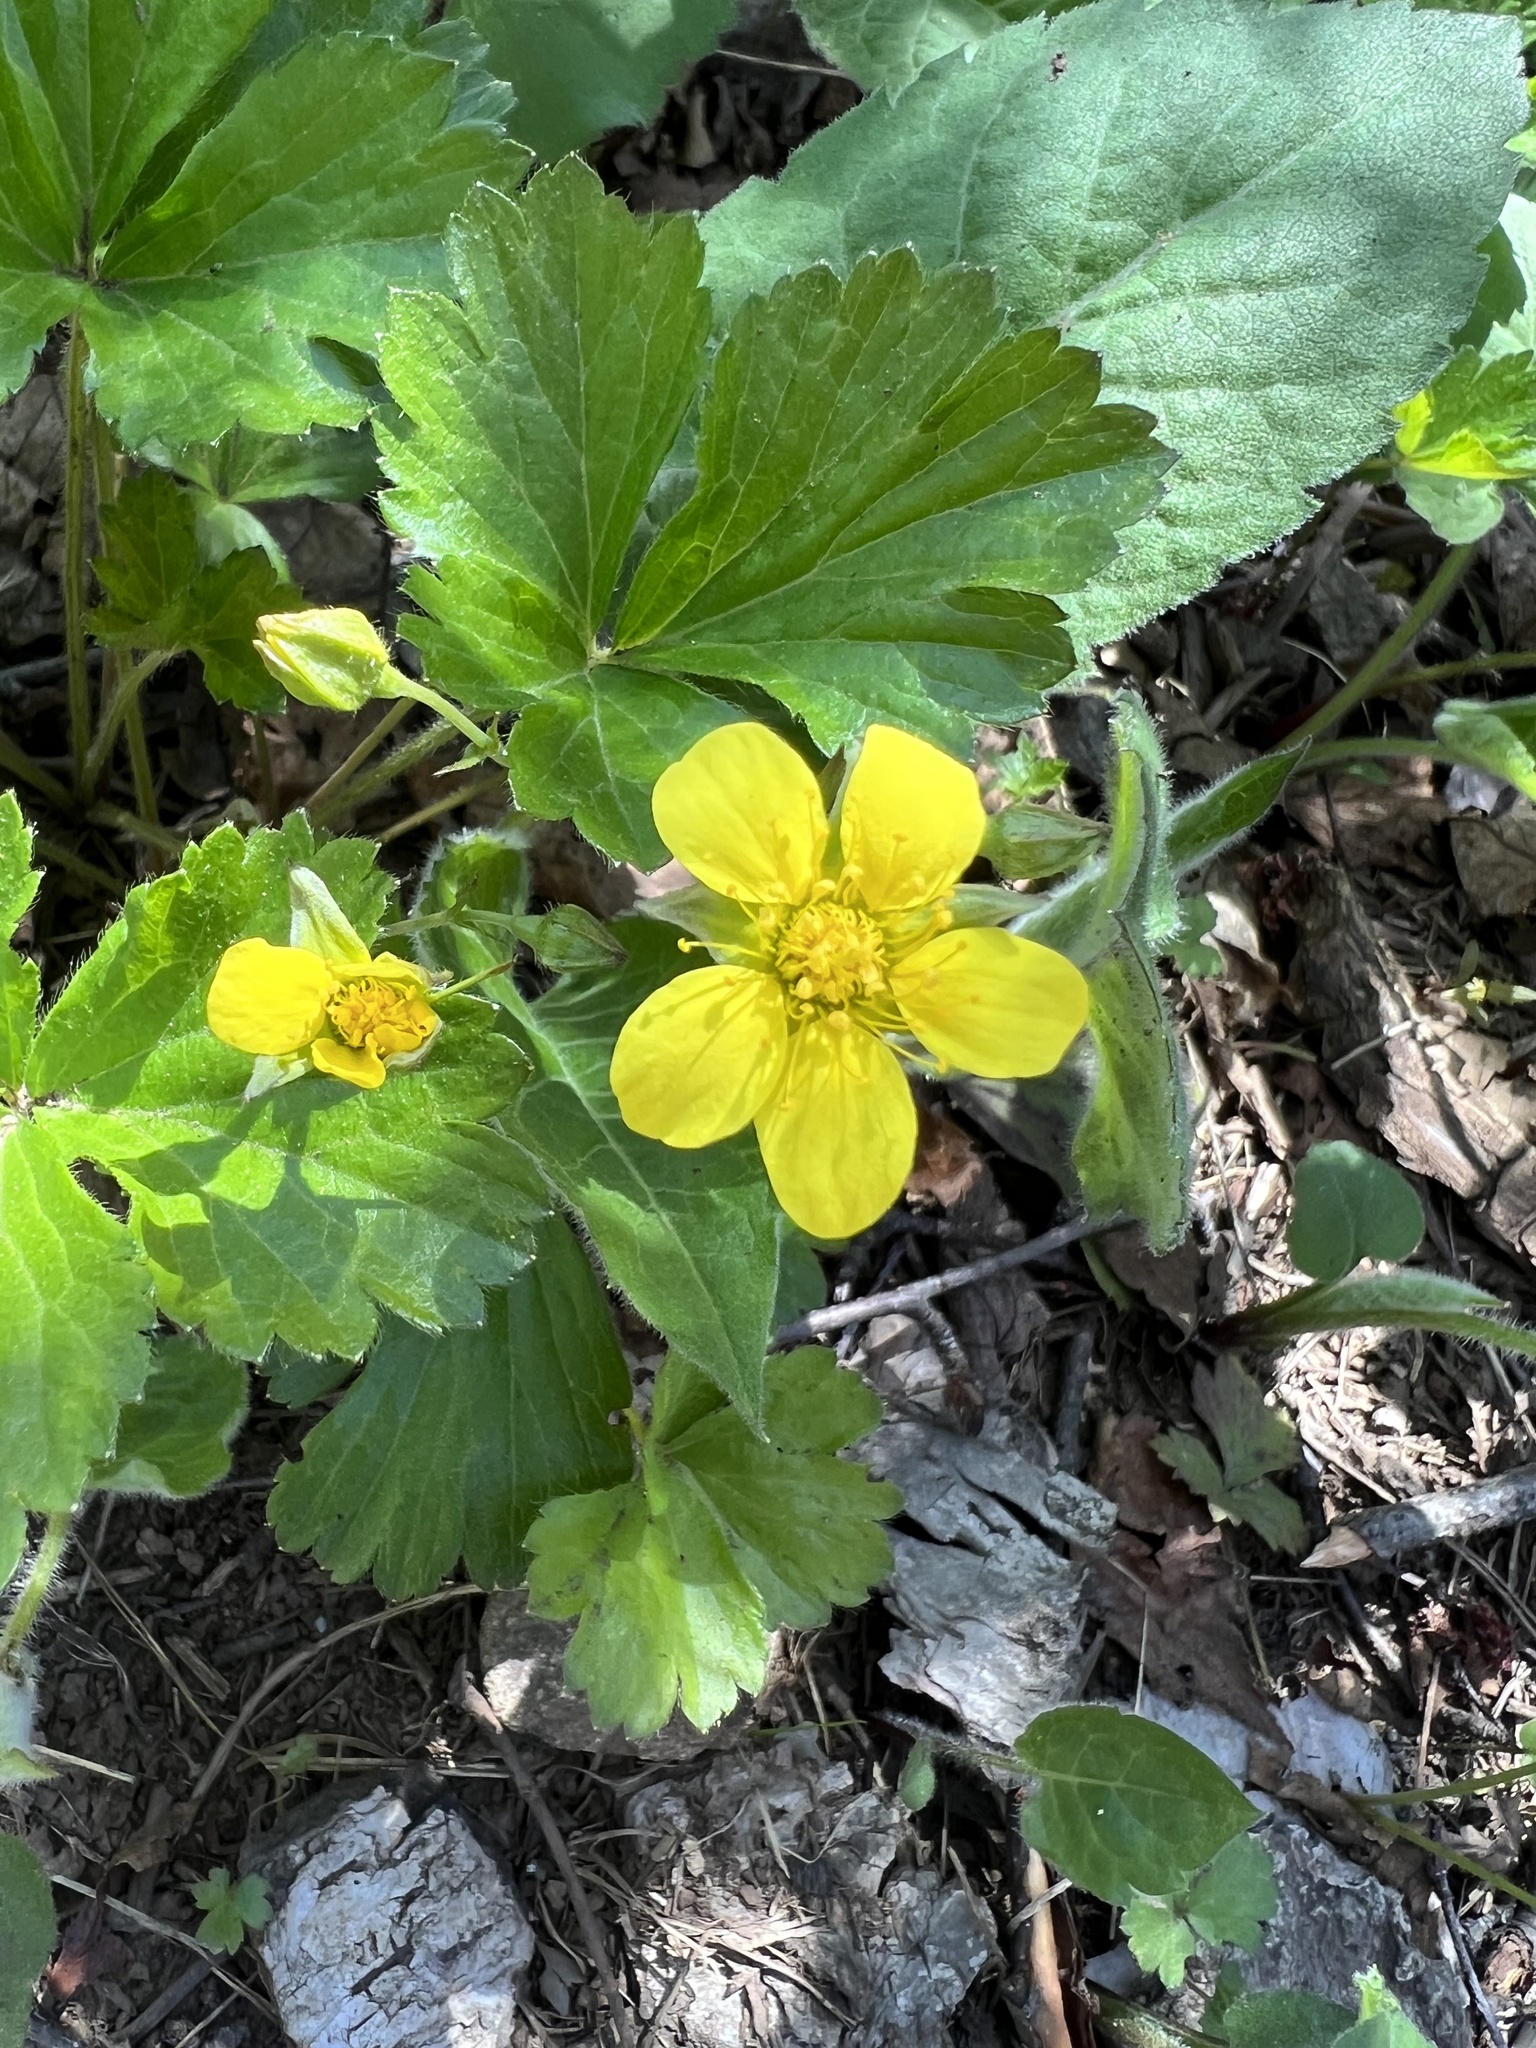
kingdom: Plantae
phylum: Tracheophyta
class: Magnoliopsida
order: Rosales
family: Rosaceae
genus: Geum
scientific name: Geum fragarioides
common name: Appalachian barren strawberry
